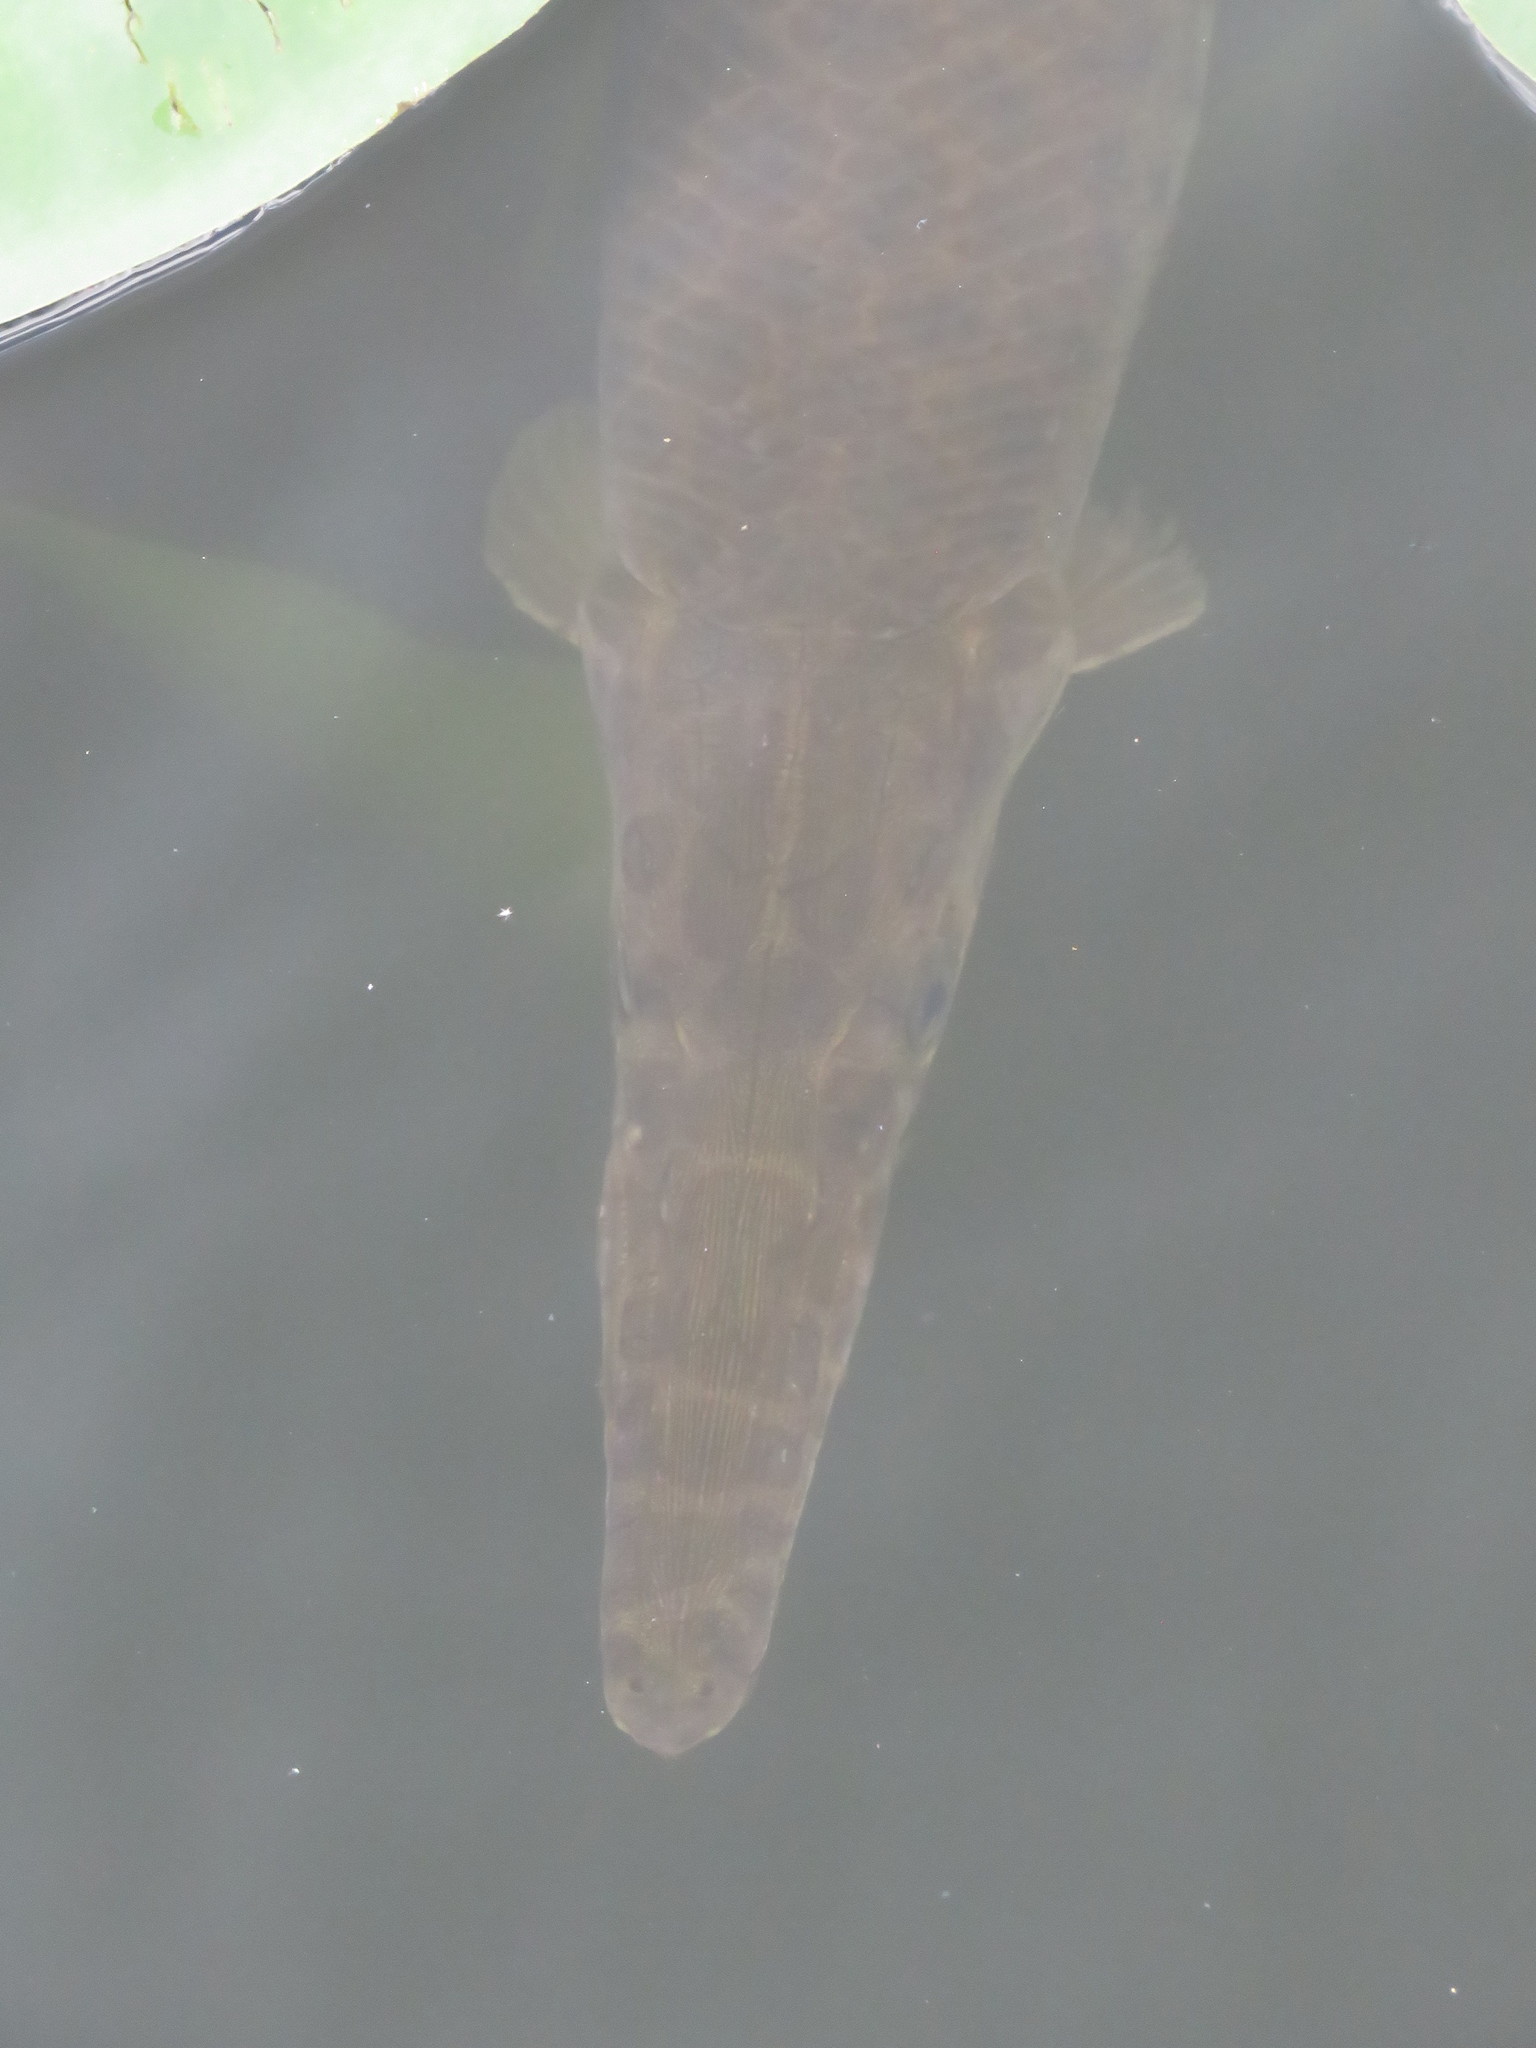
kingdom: Animalia
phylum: Chordata
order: Lepisosteiformes
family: Lepisosteidae
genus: Lepisosteus
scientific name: Lepisosteus platyrhincus
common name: Florida gar
